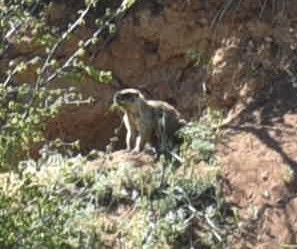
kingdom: Animalia
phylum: Chordata
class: Mammalia
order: Rodentia
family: Sciuridae
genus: Marmota
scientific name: Marmota bobak
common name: Bobak marmot
